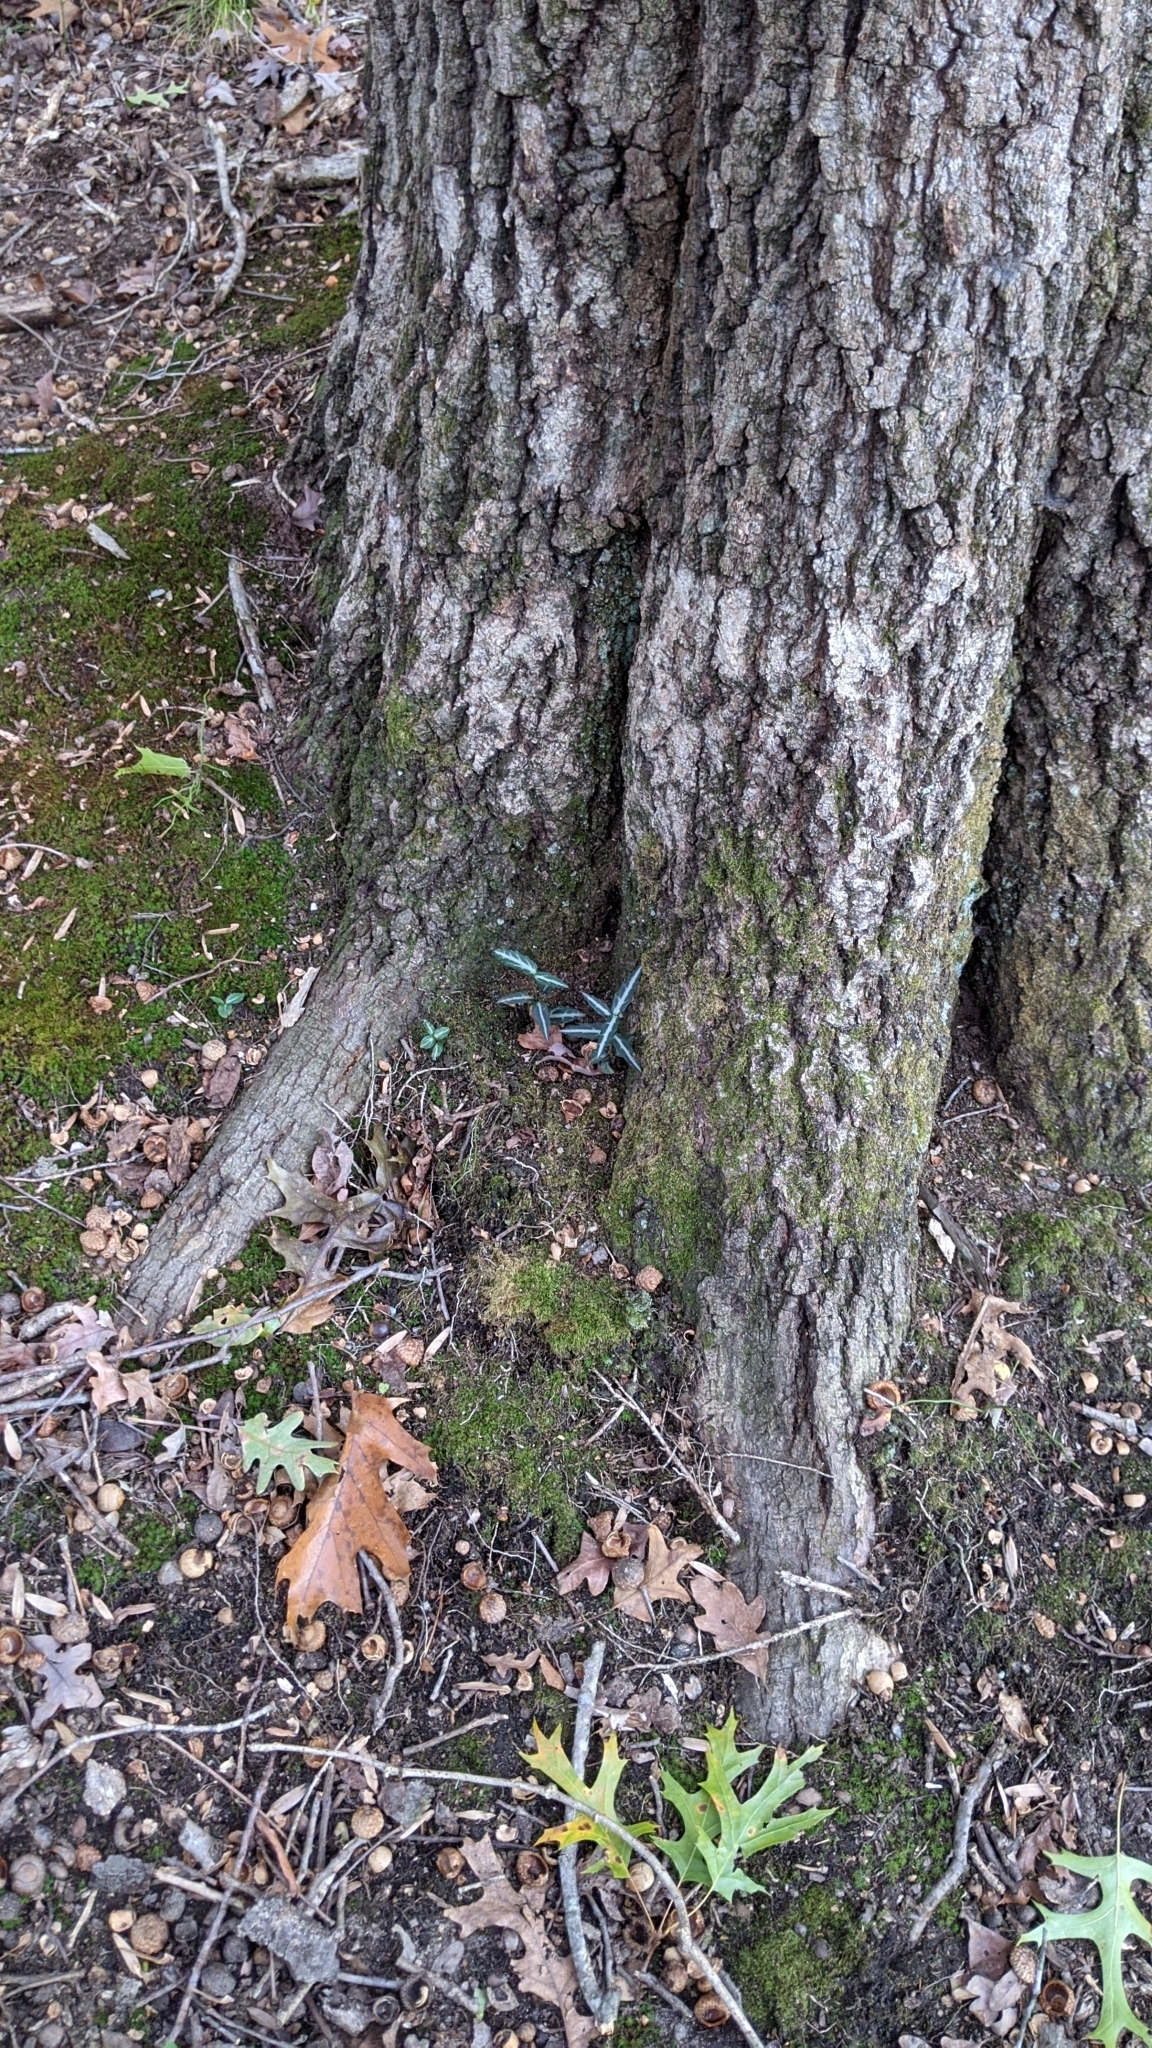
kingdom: Plantae
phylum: Tracheophyta
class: Magnoliopsida
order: Ericales
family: Ericaceae
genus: Chimaphila
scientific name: Chimaphila maculata
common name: Spotted pipsissewa
